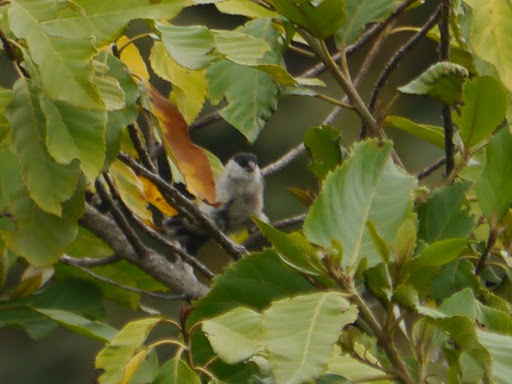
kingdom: Animalia
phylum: Chordata
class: Aves
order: Passeriformes
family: Estrildidae
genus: Estrilda
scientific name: Estrilda nonnula
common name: Black-crowned waxbill
